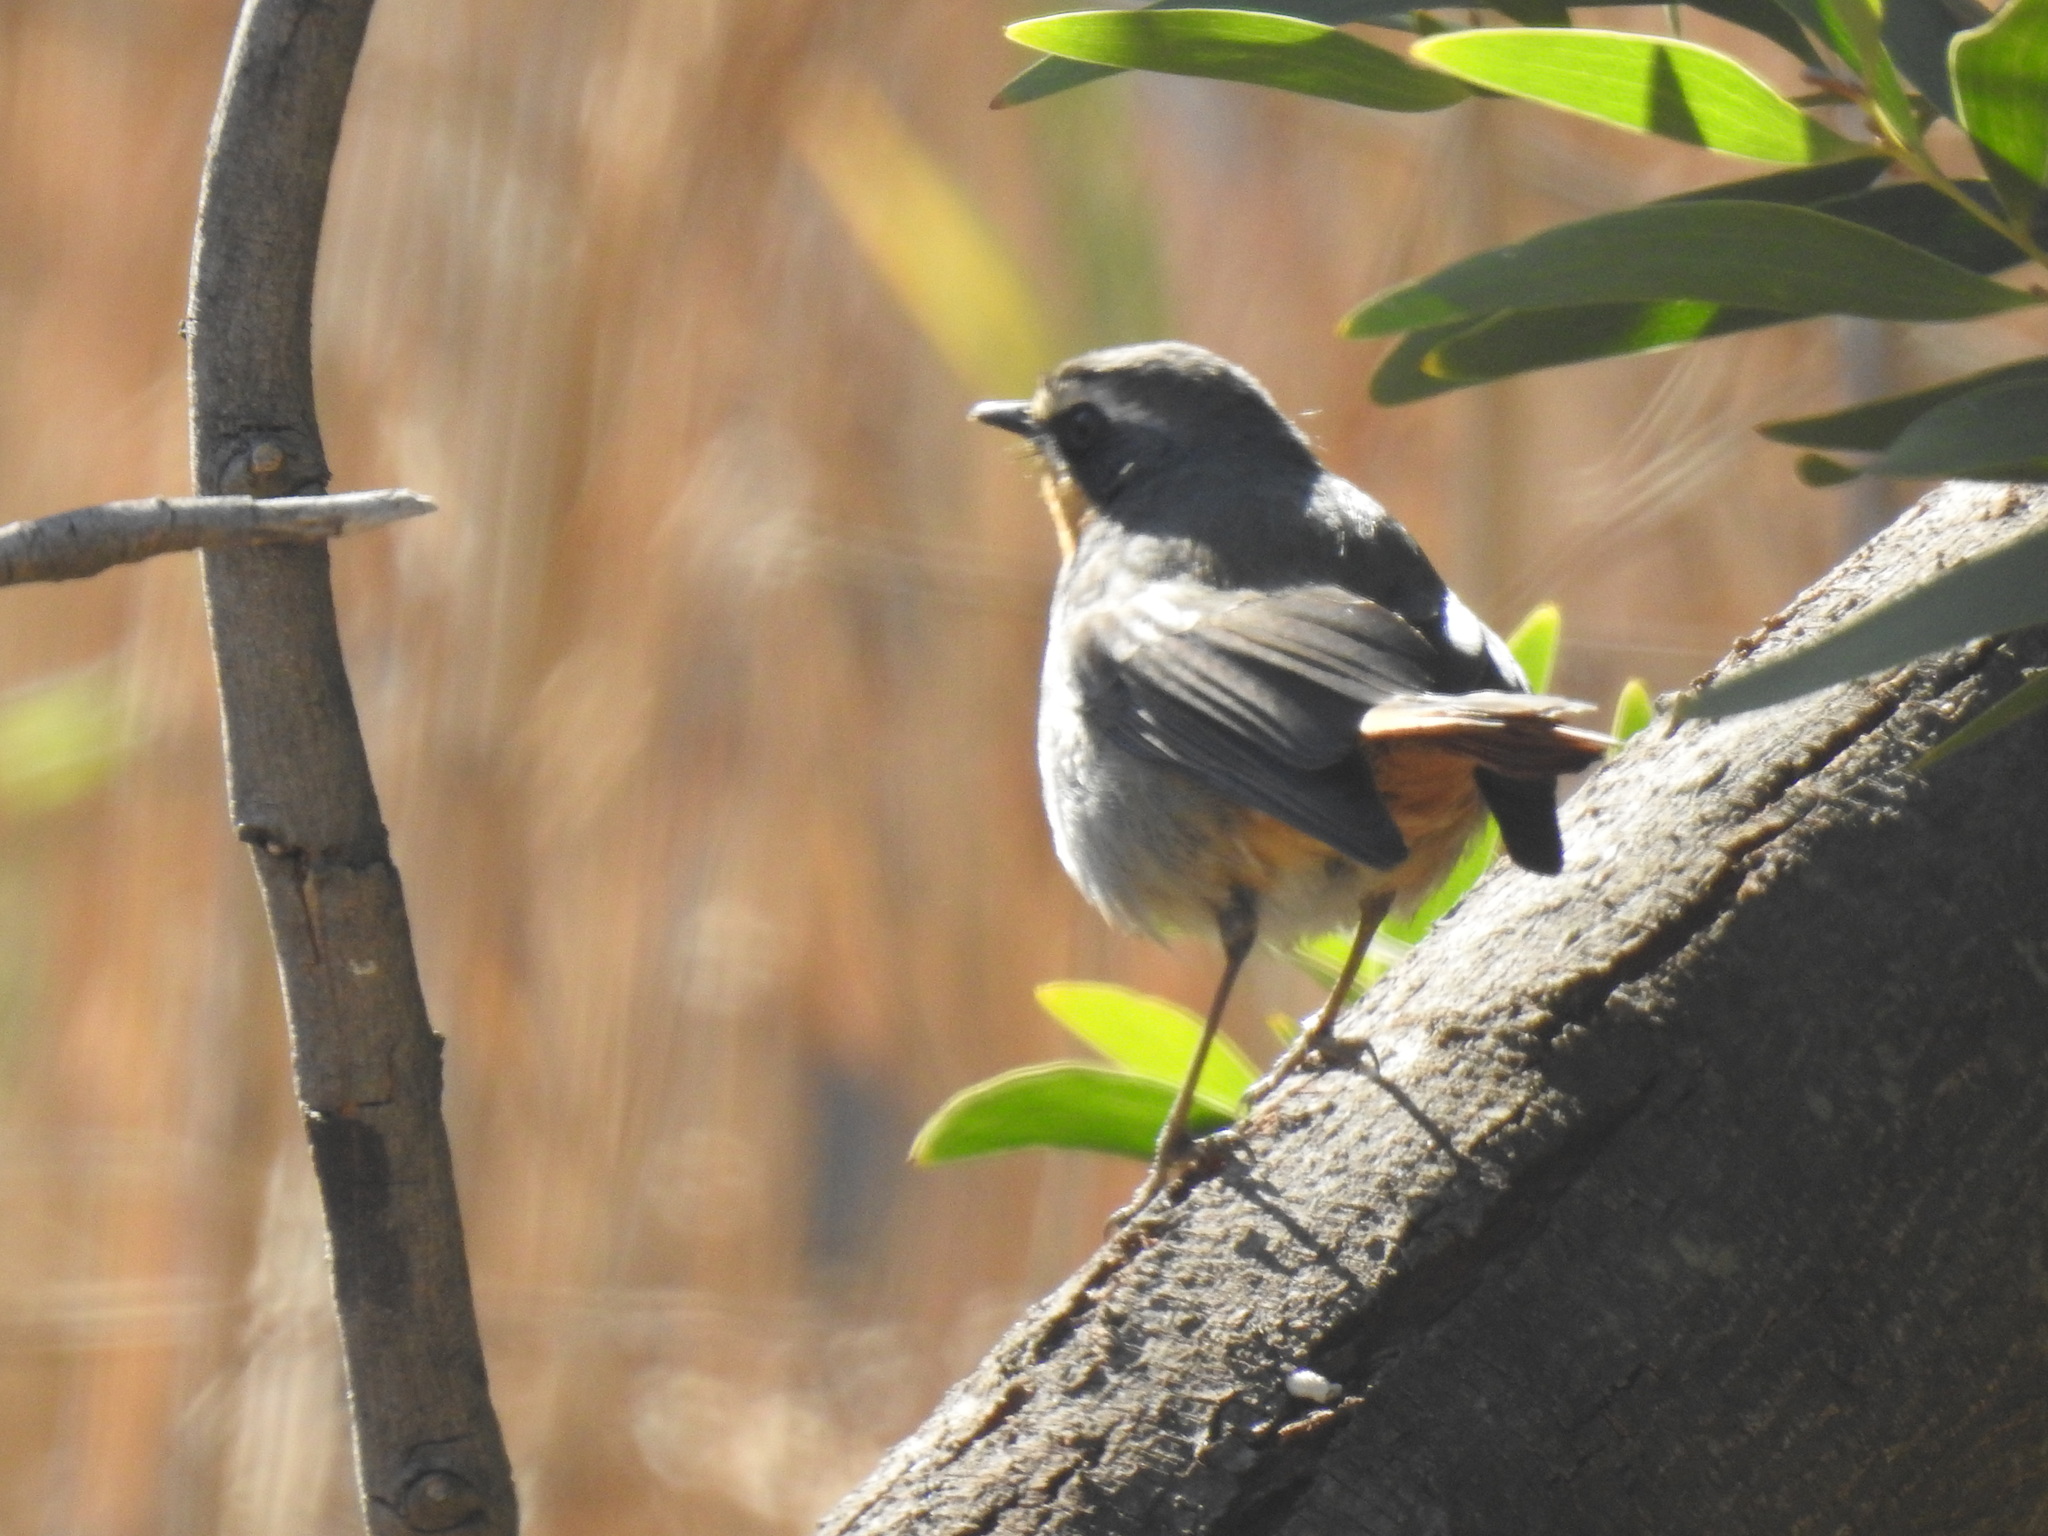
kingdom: Animalia
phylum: Chordata
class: Aves
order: Passeriformes
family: Muscicapidae
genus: Cossypha
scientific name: Cossypha caffra
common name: Cape robin-chat
